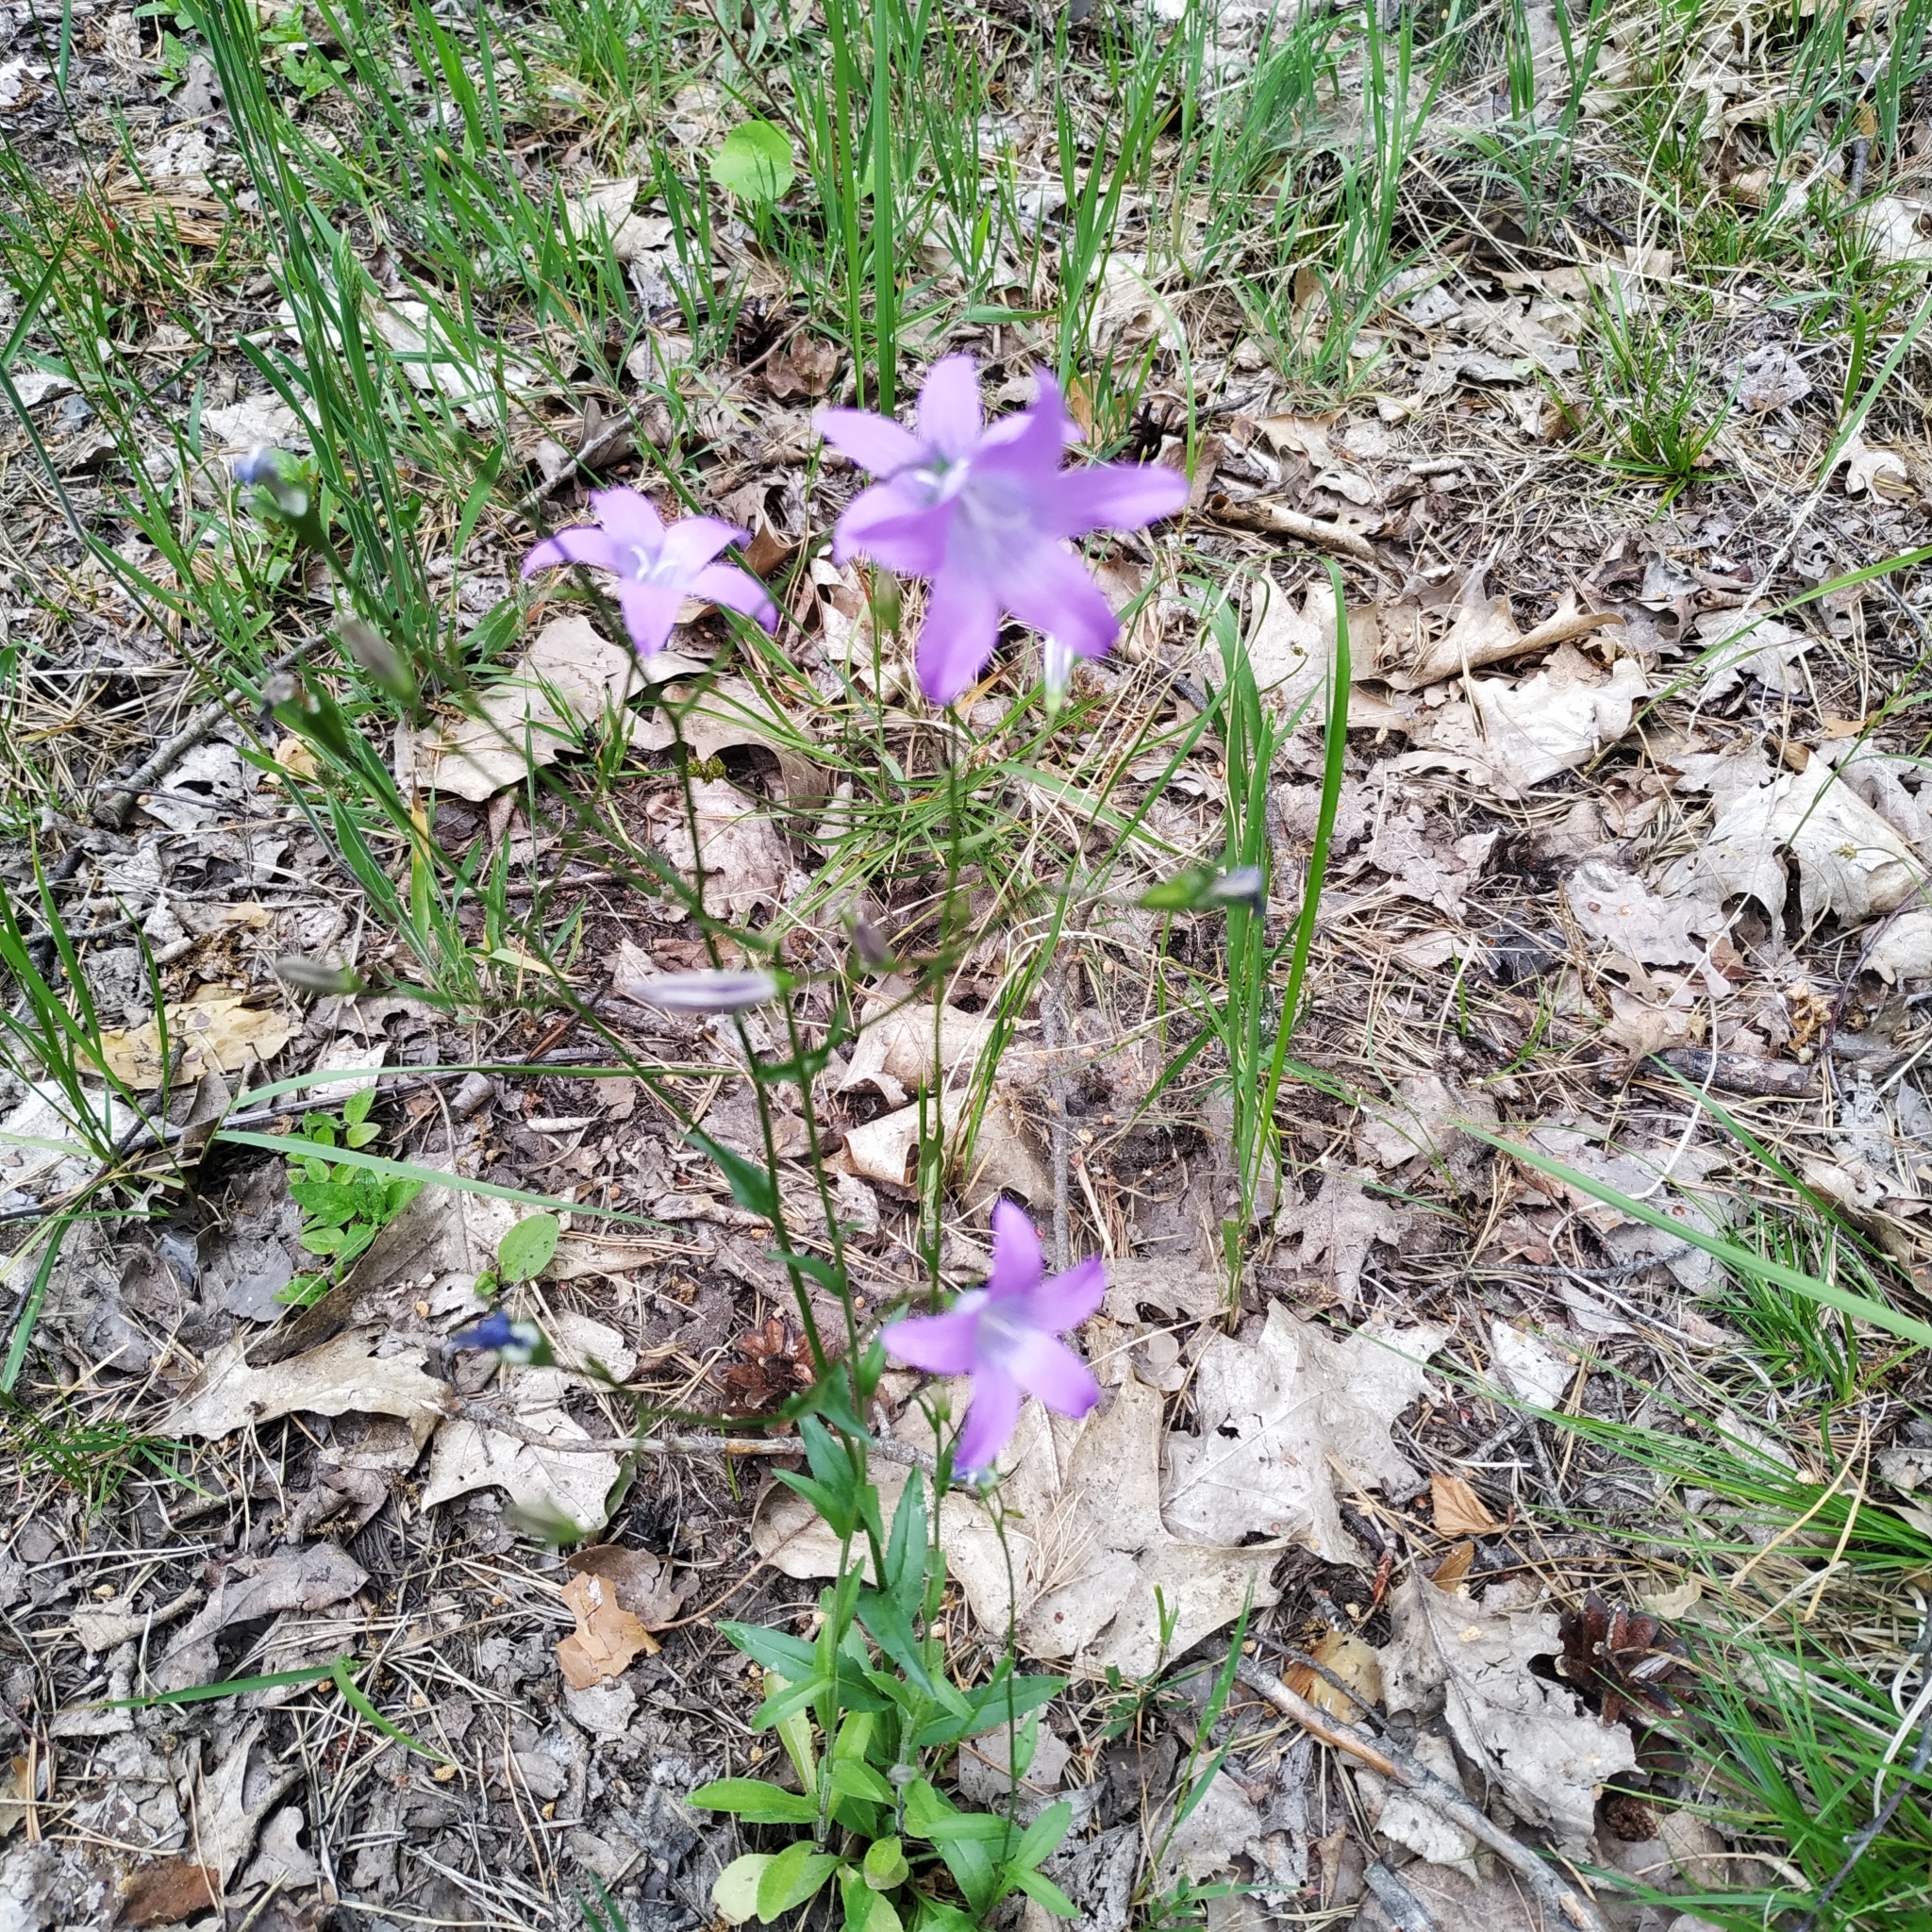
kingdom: Plantae
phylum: Tracheophyta
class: Magnoliopsida
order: Asterales
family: Campanulaceae
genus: Campanula
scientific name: Campanula patula
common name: Spreading bellflower
